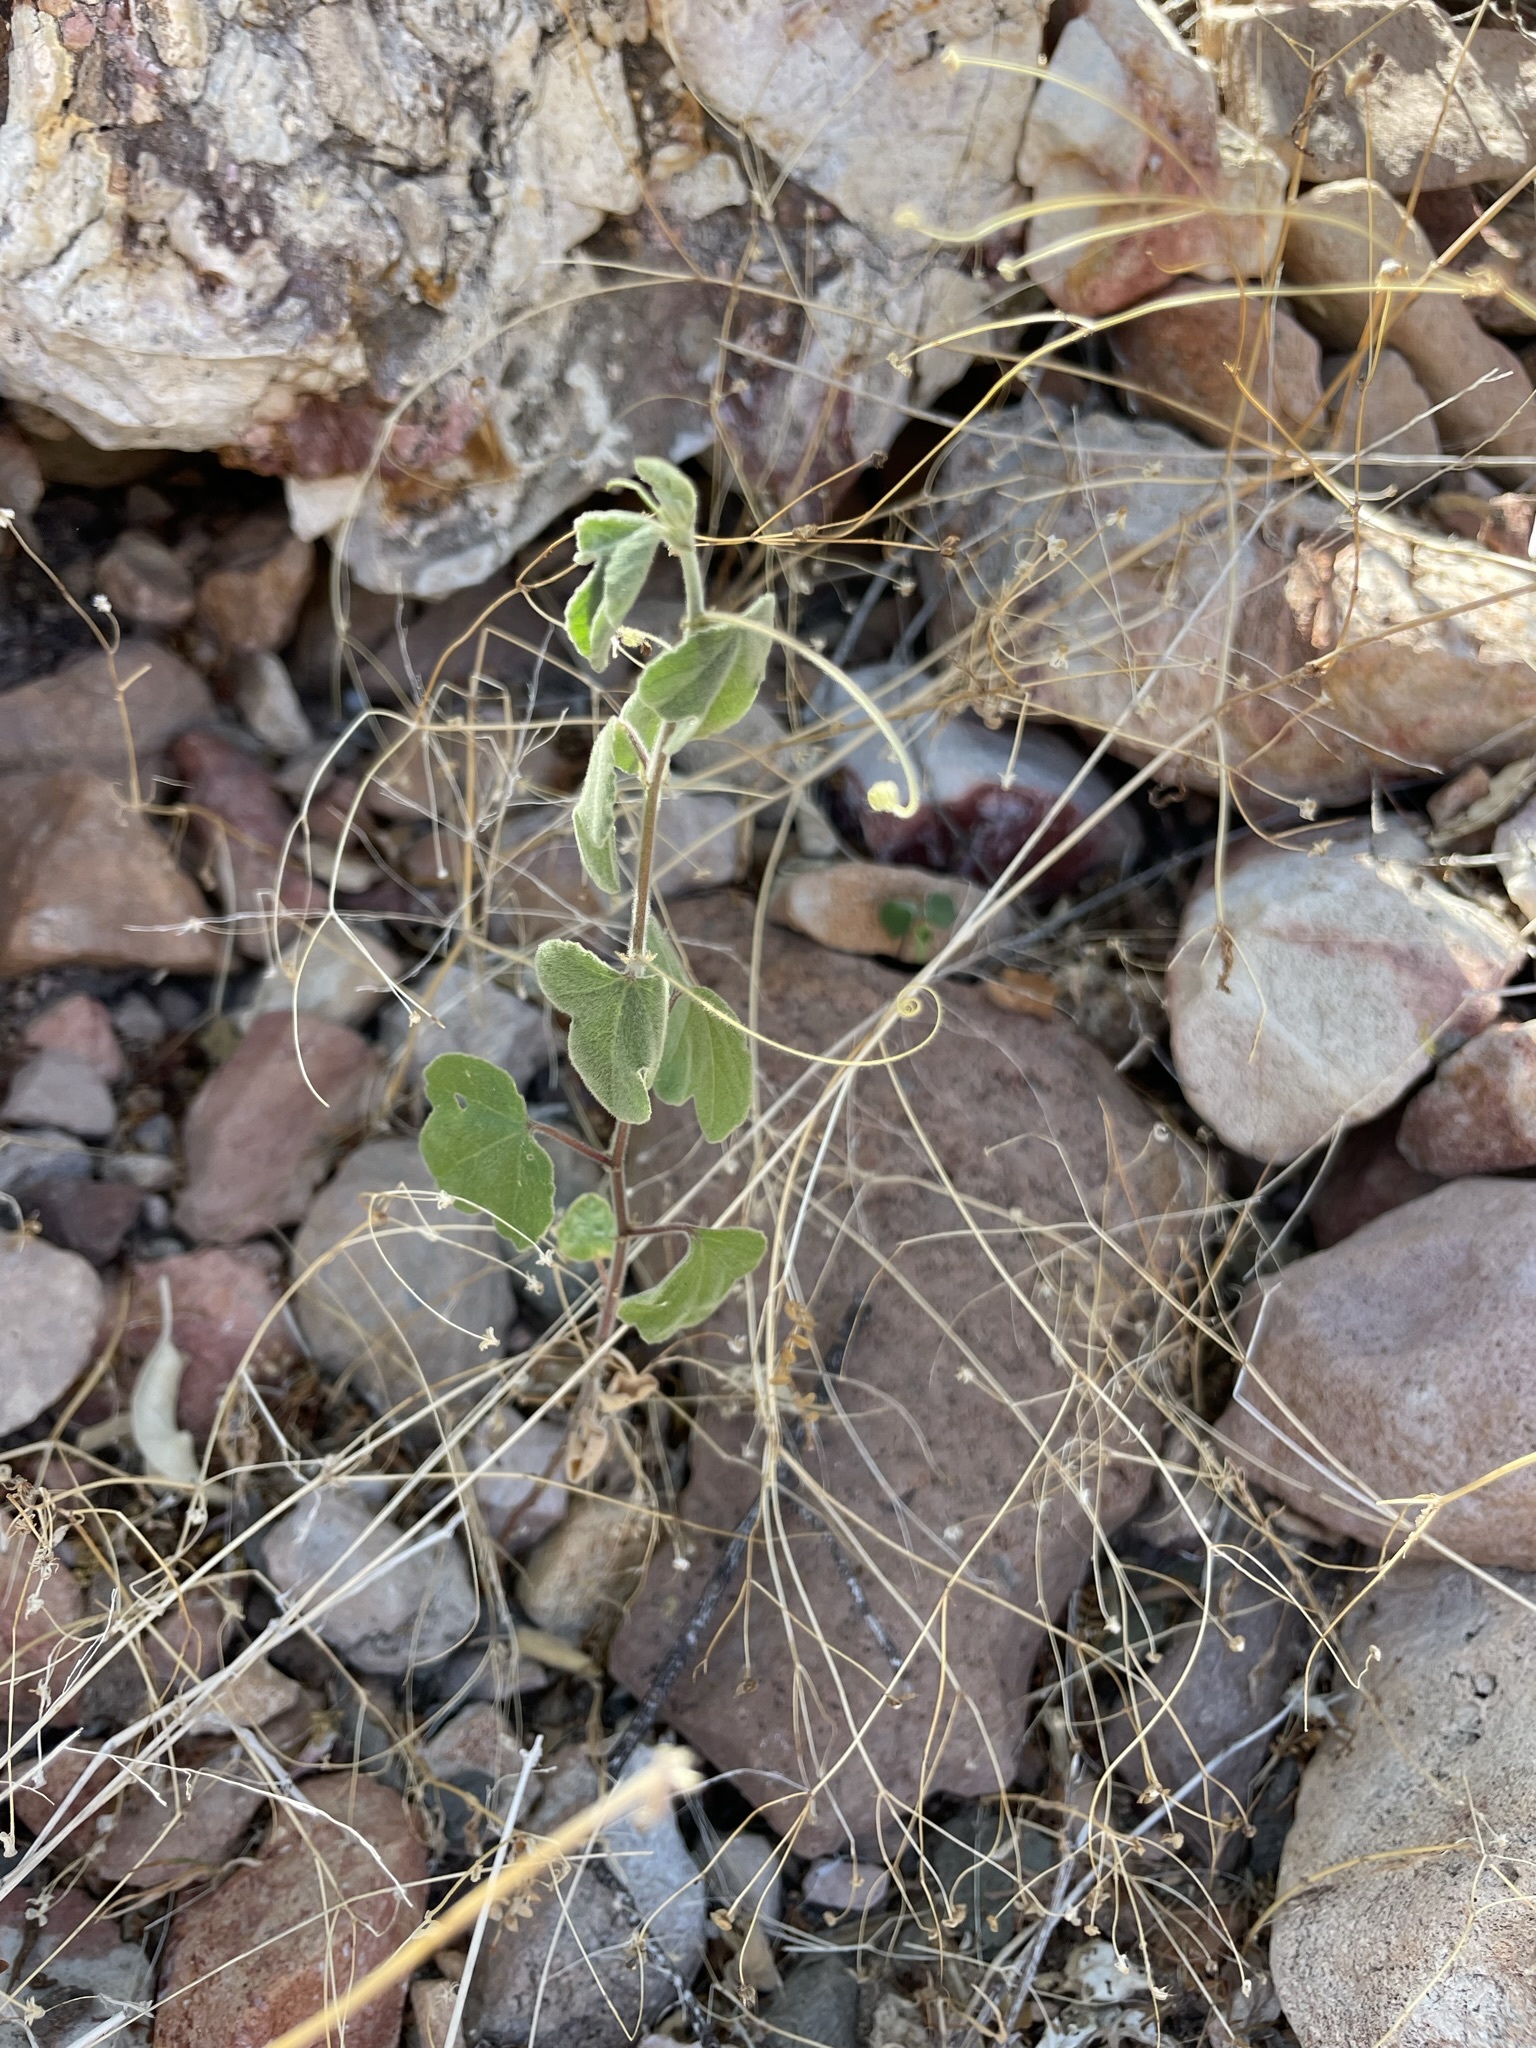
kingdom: Plantae
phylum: Tracheophyta
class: Magnoliopsida
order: Malpighiales
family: Passifloraceae
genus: Passiflora
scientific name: Passiflora arida
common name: Desert passionflower
